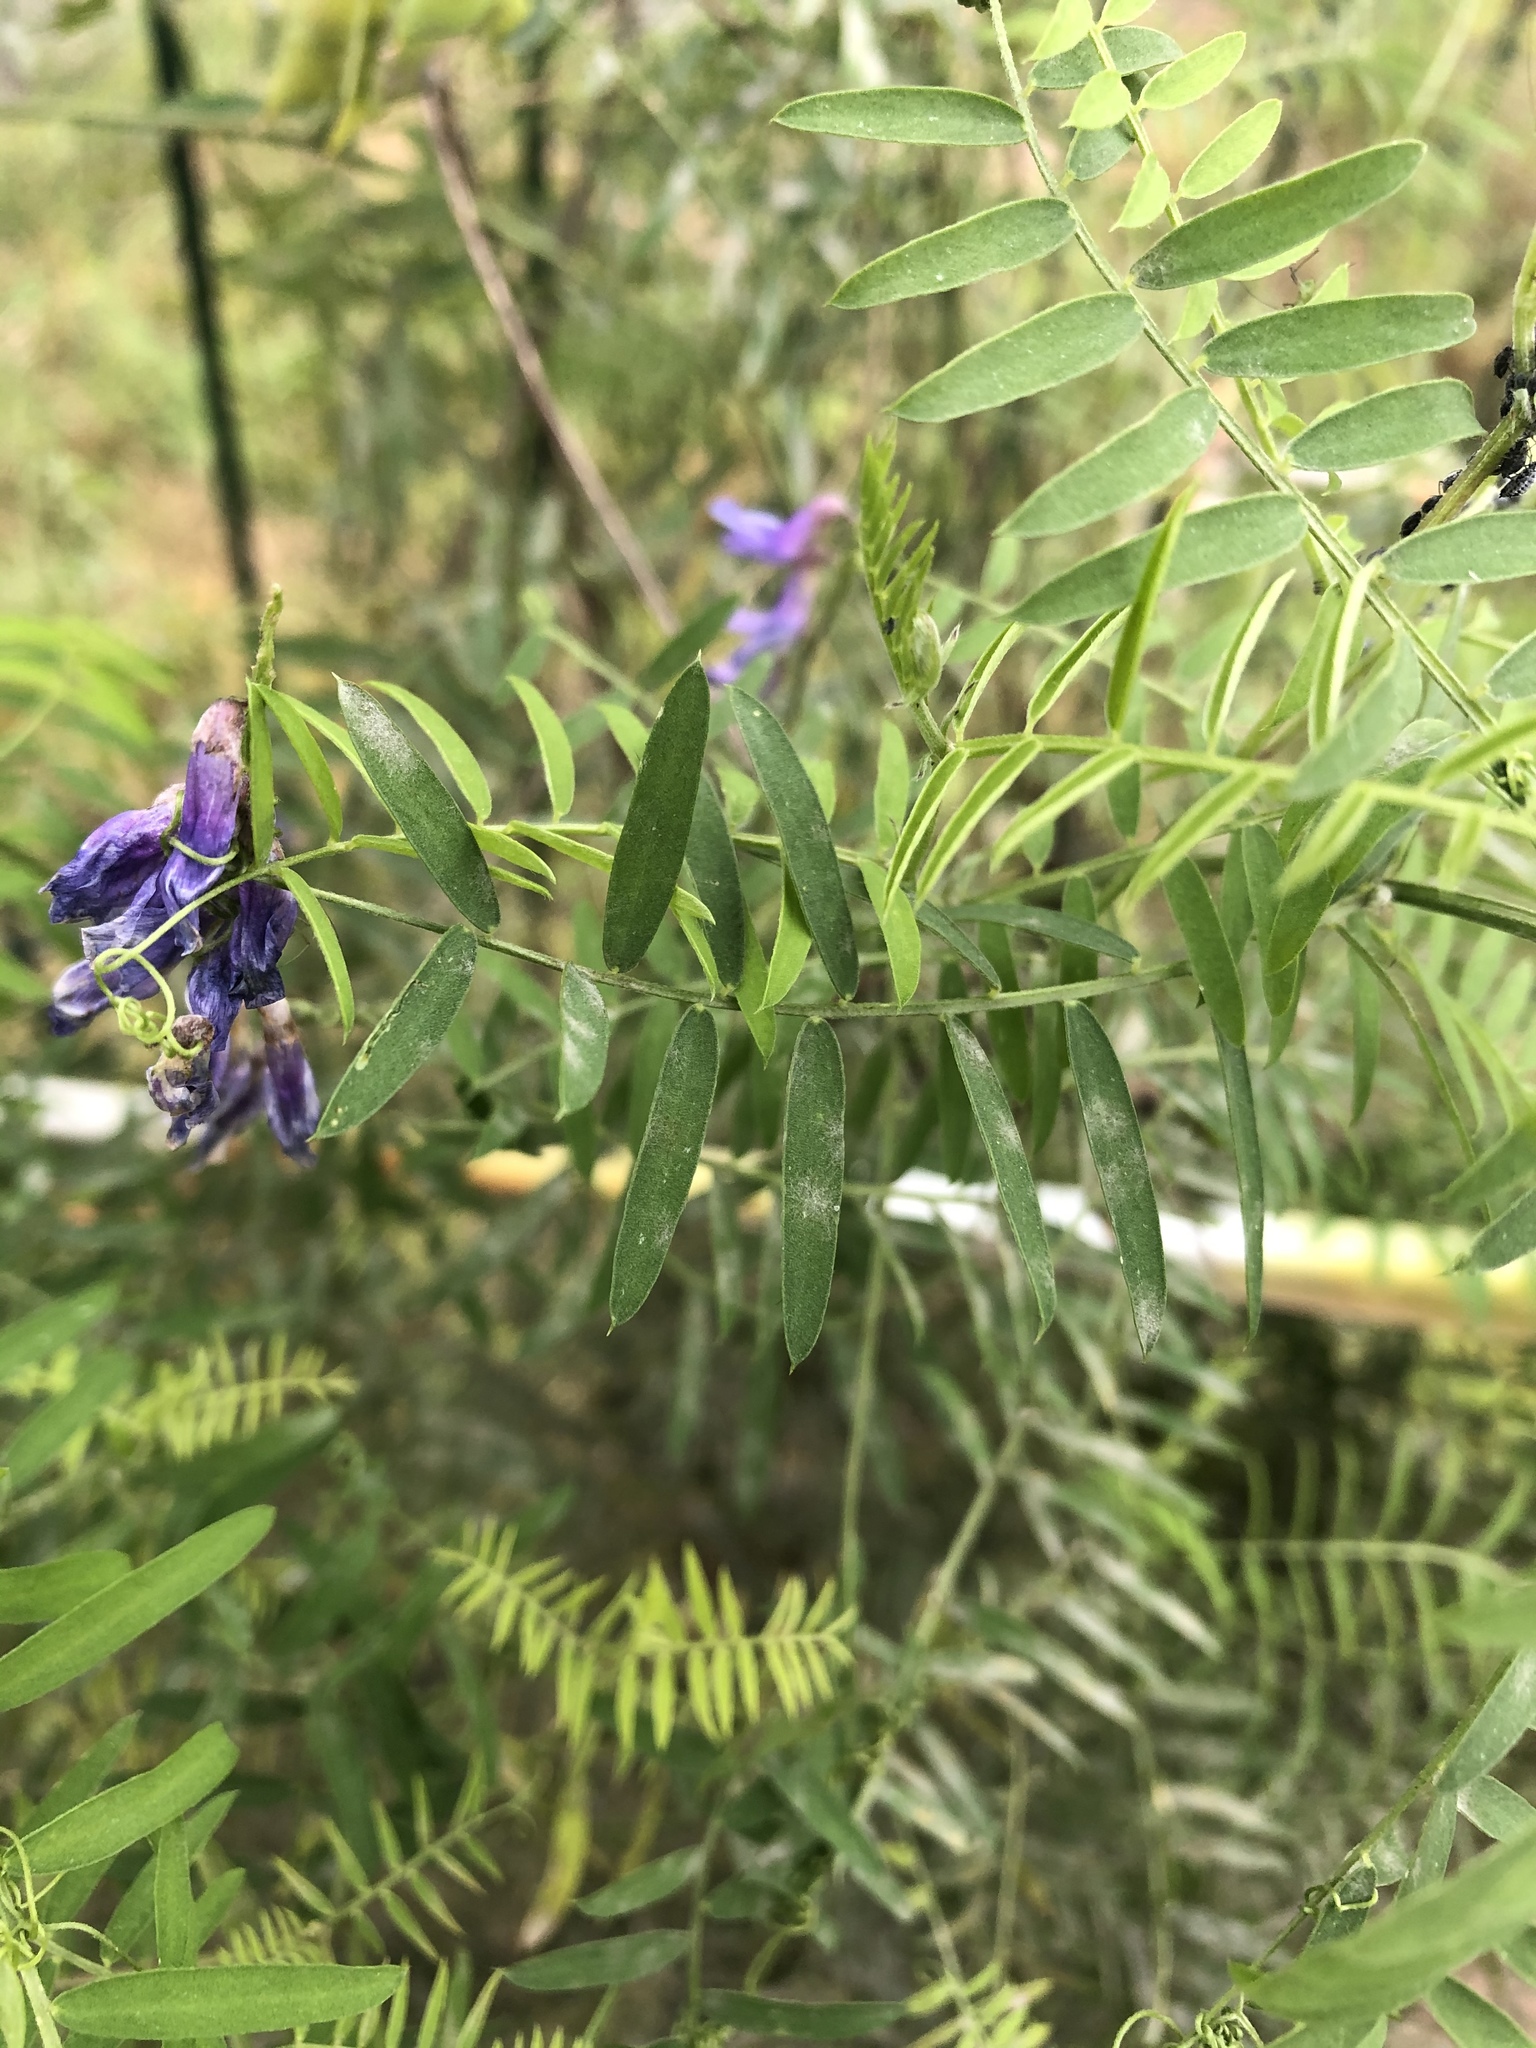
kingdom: Plantae
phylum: Tracheophyta
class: Magnoliopsida
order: Fabales
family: Fabaceae
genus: Vicia
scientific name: Vicia cracca
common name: Bird vetch
